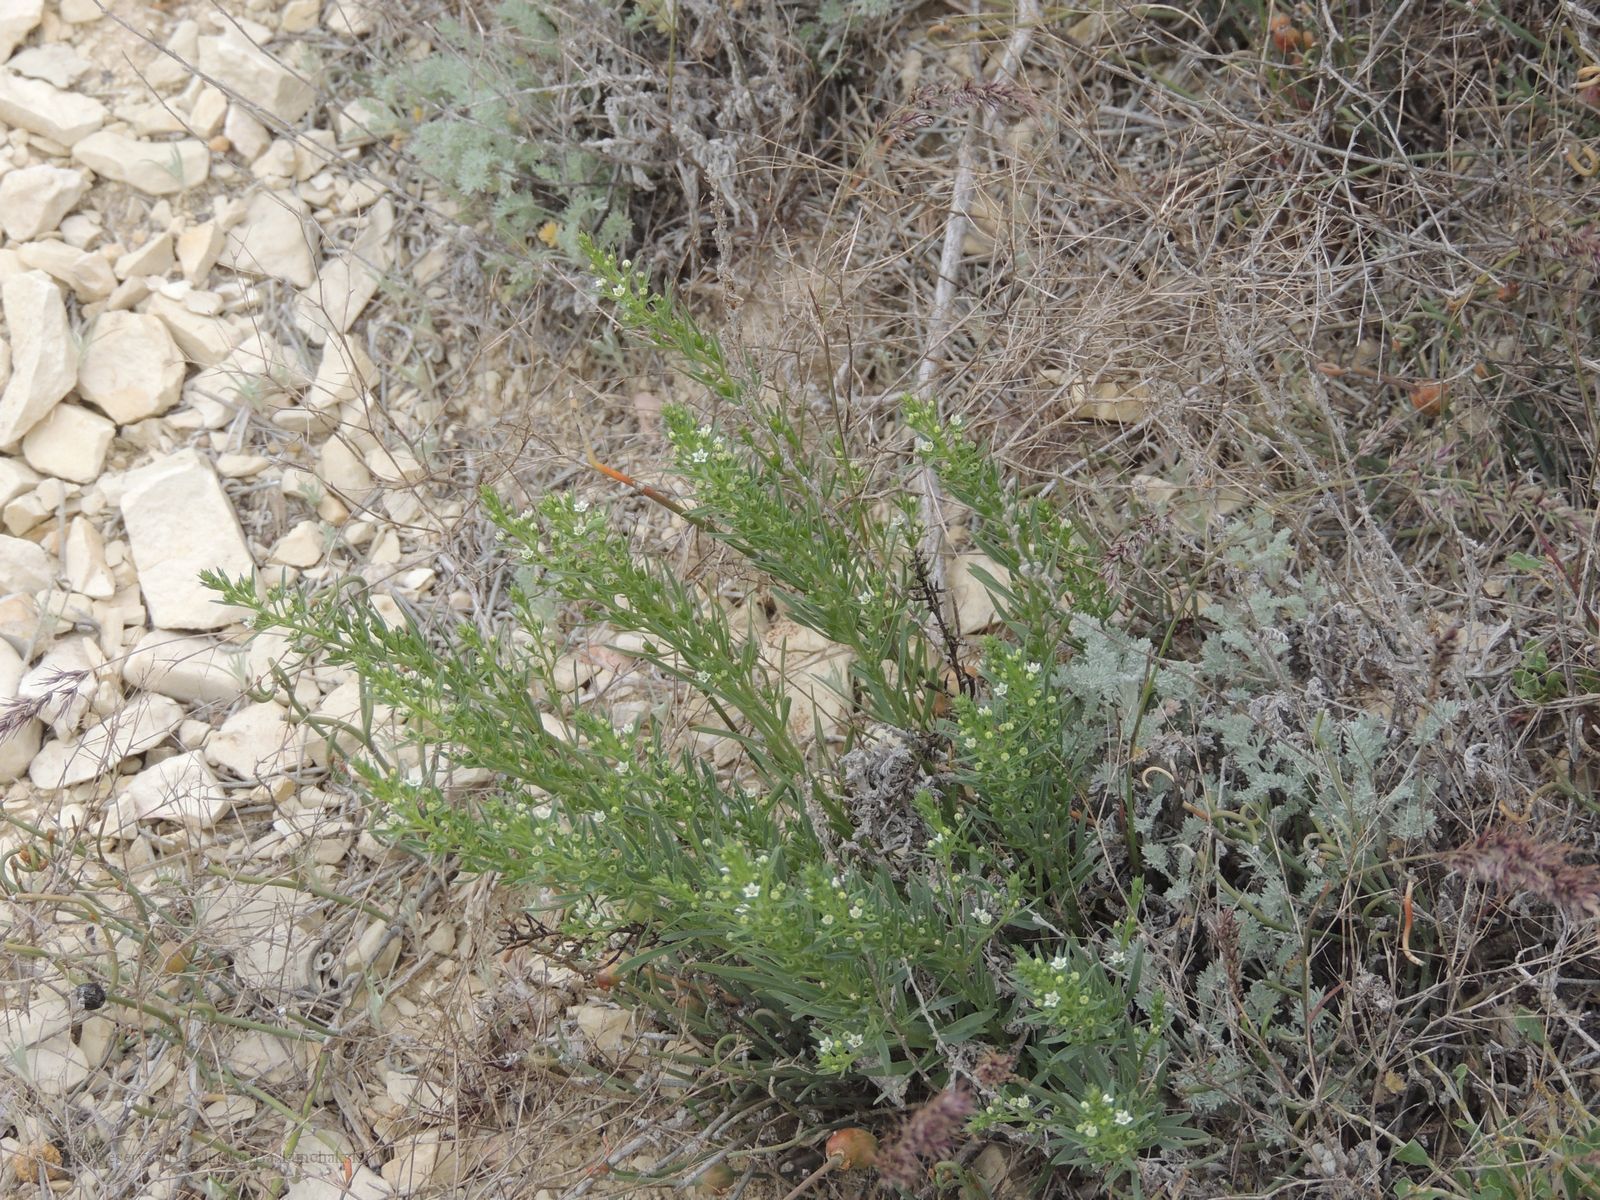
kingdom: Plantae
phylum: Tracheophyta
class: Magnoliopsida
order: Santalales
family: Thesiaceae
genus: Thesium
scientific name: Thesium ramosum
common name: Field thesium
